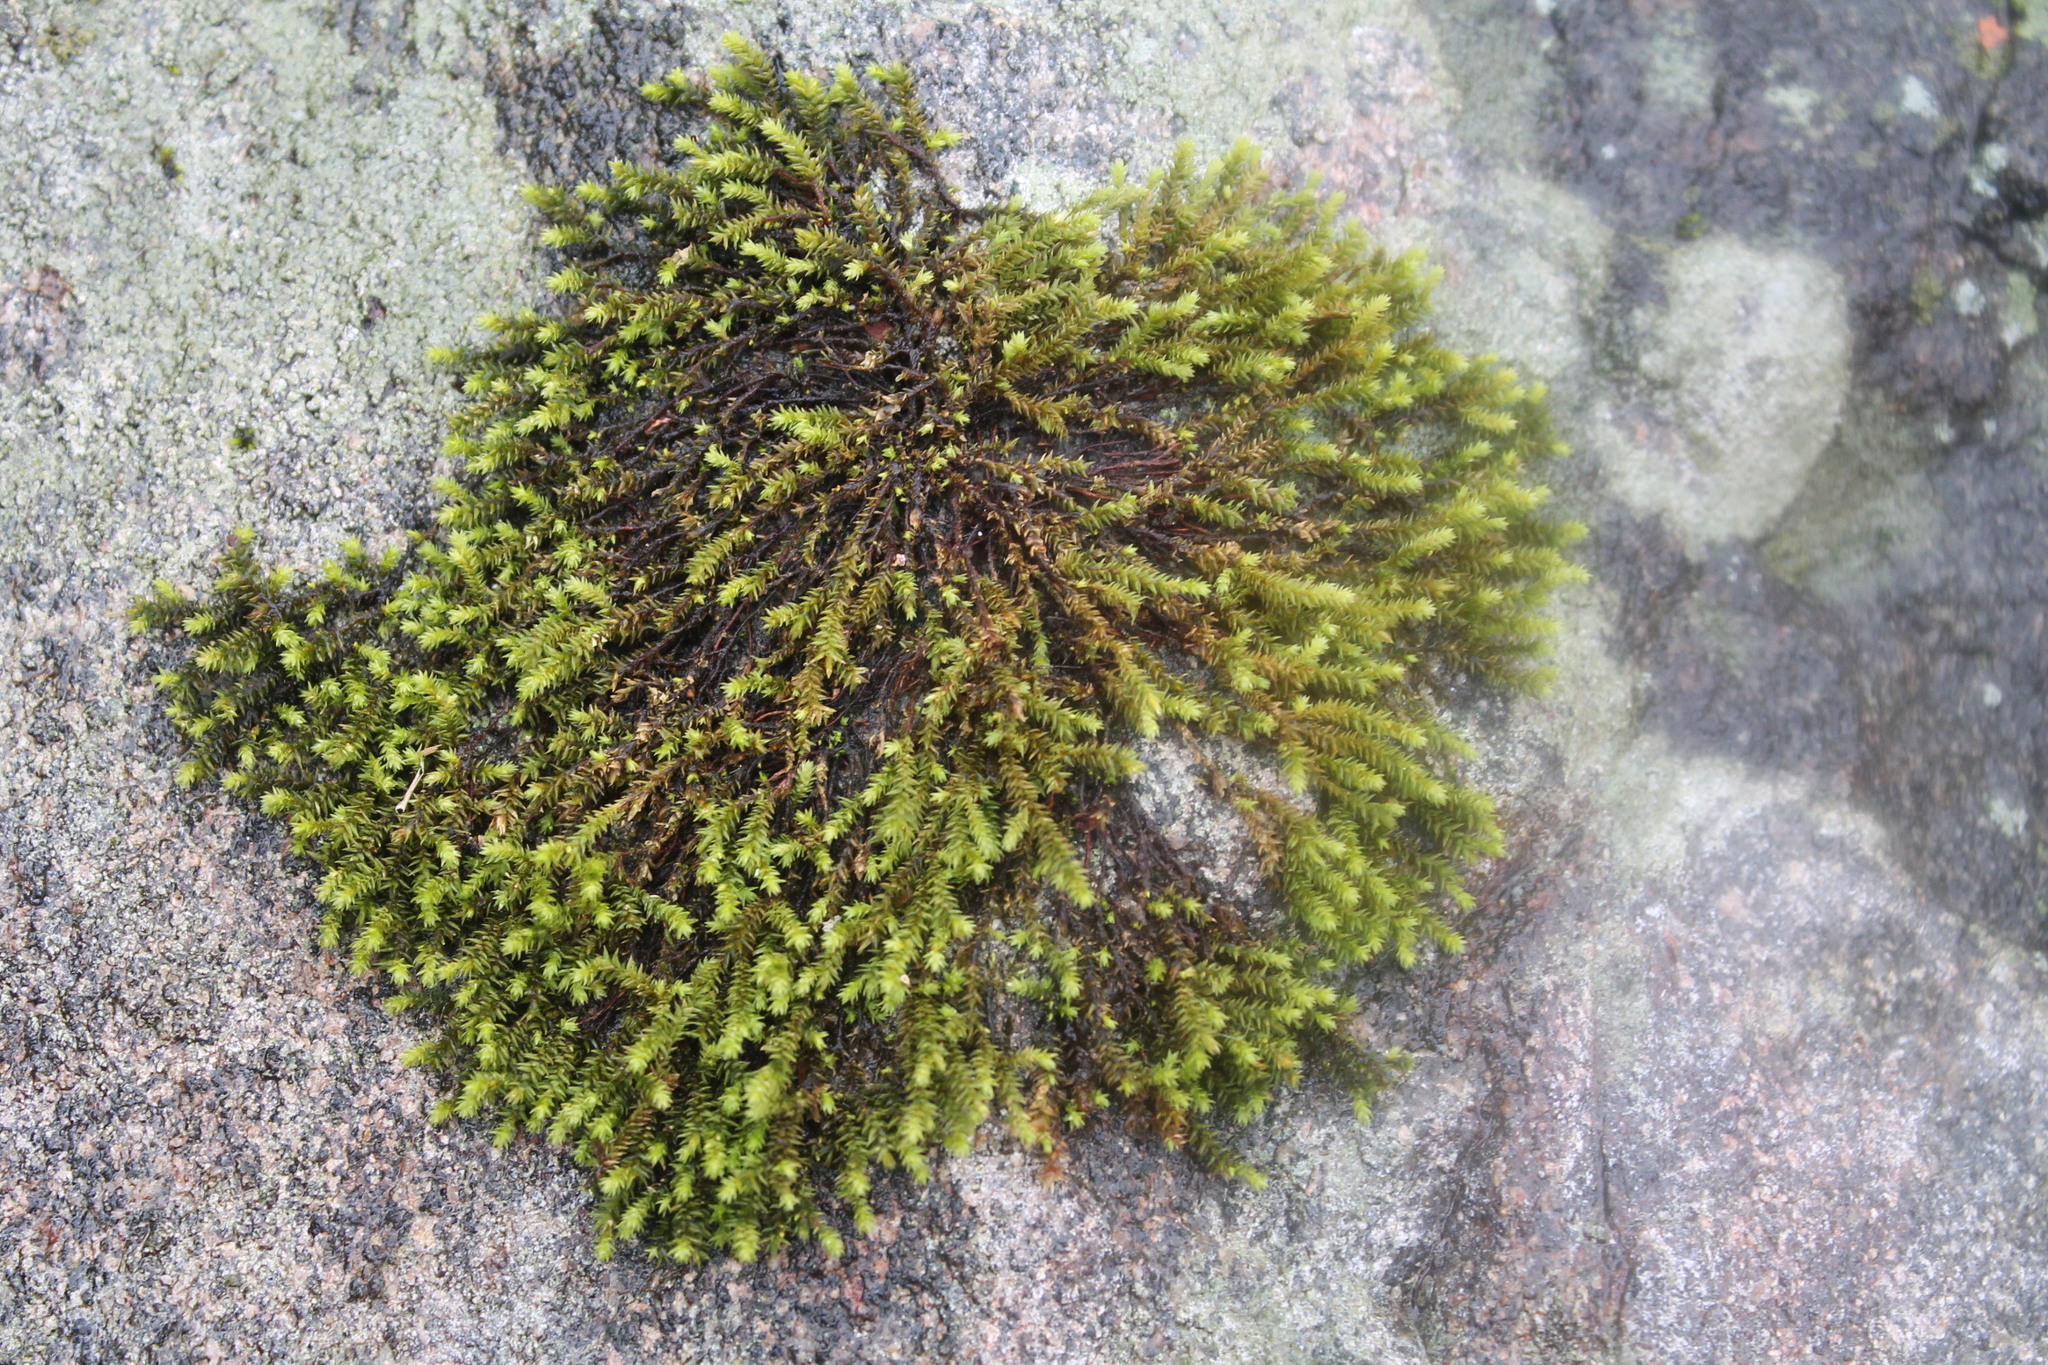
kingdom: Plantae
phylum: Bryophyta
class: Bryopsida
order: Hedwigiales
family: Hedwigiaceae
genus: Hedwigia
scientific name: Hedwigia ciliata
